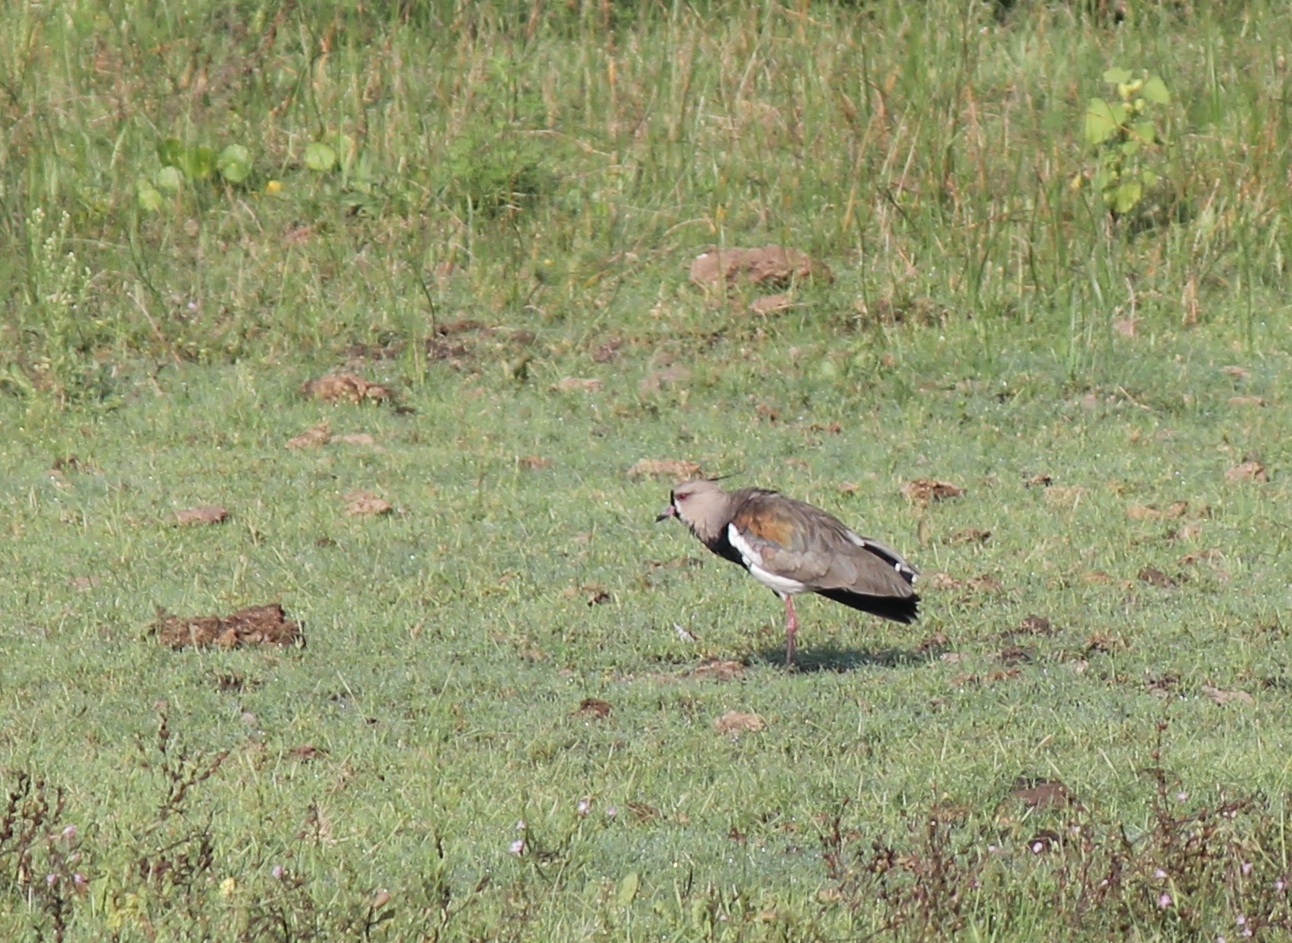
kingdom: Animalia
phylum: Chordata
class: Aves
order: Charadriiformes
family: Charadriidae
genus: Vanellus
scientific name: Vanellus chilensis
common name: Southern lapwing
